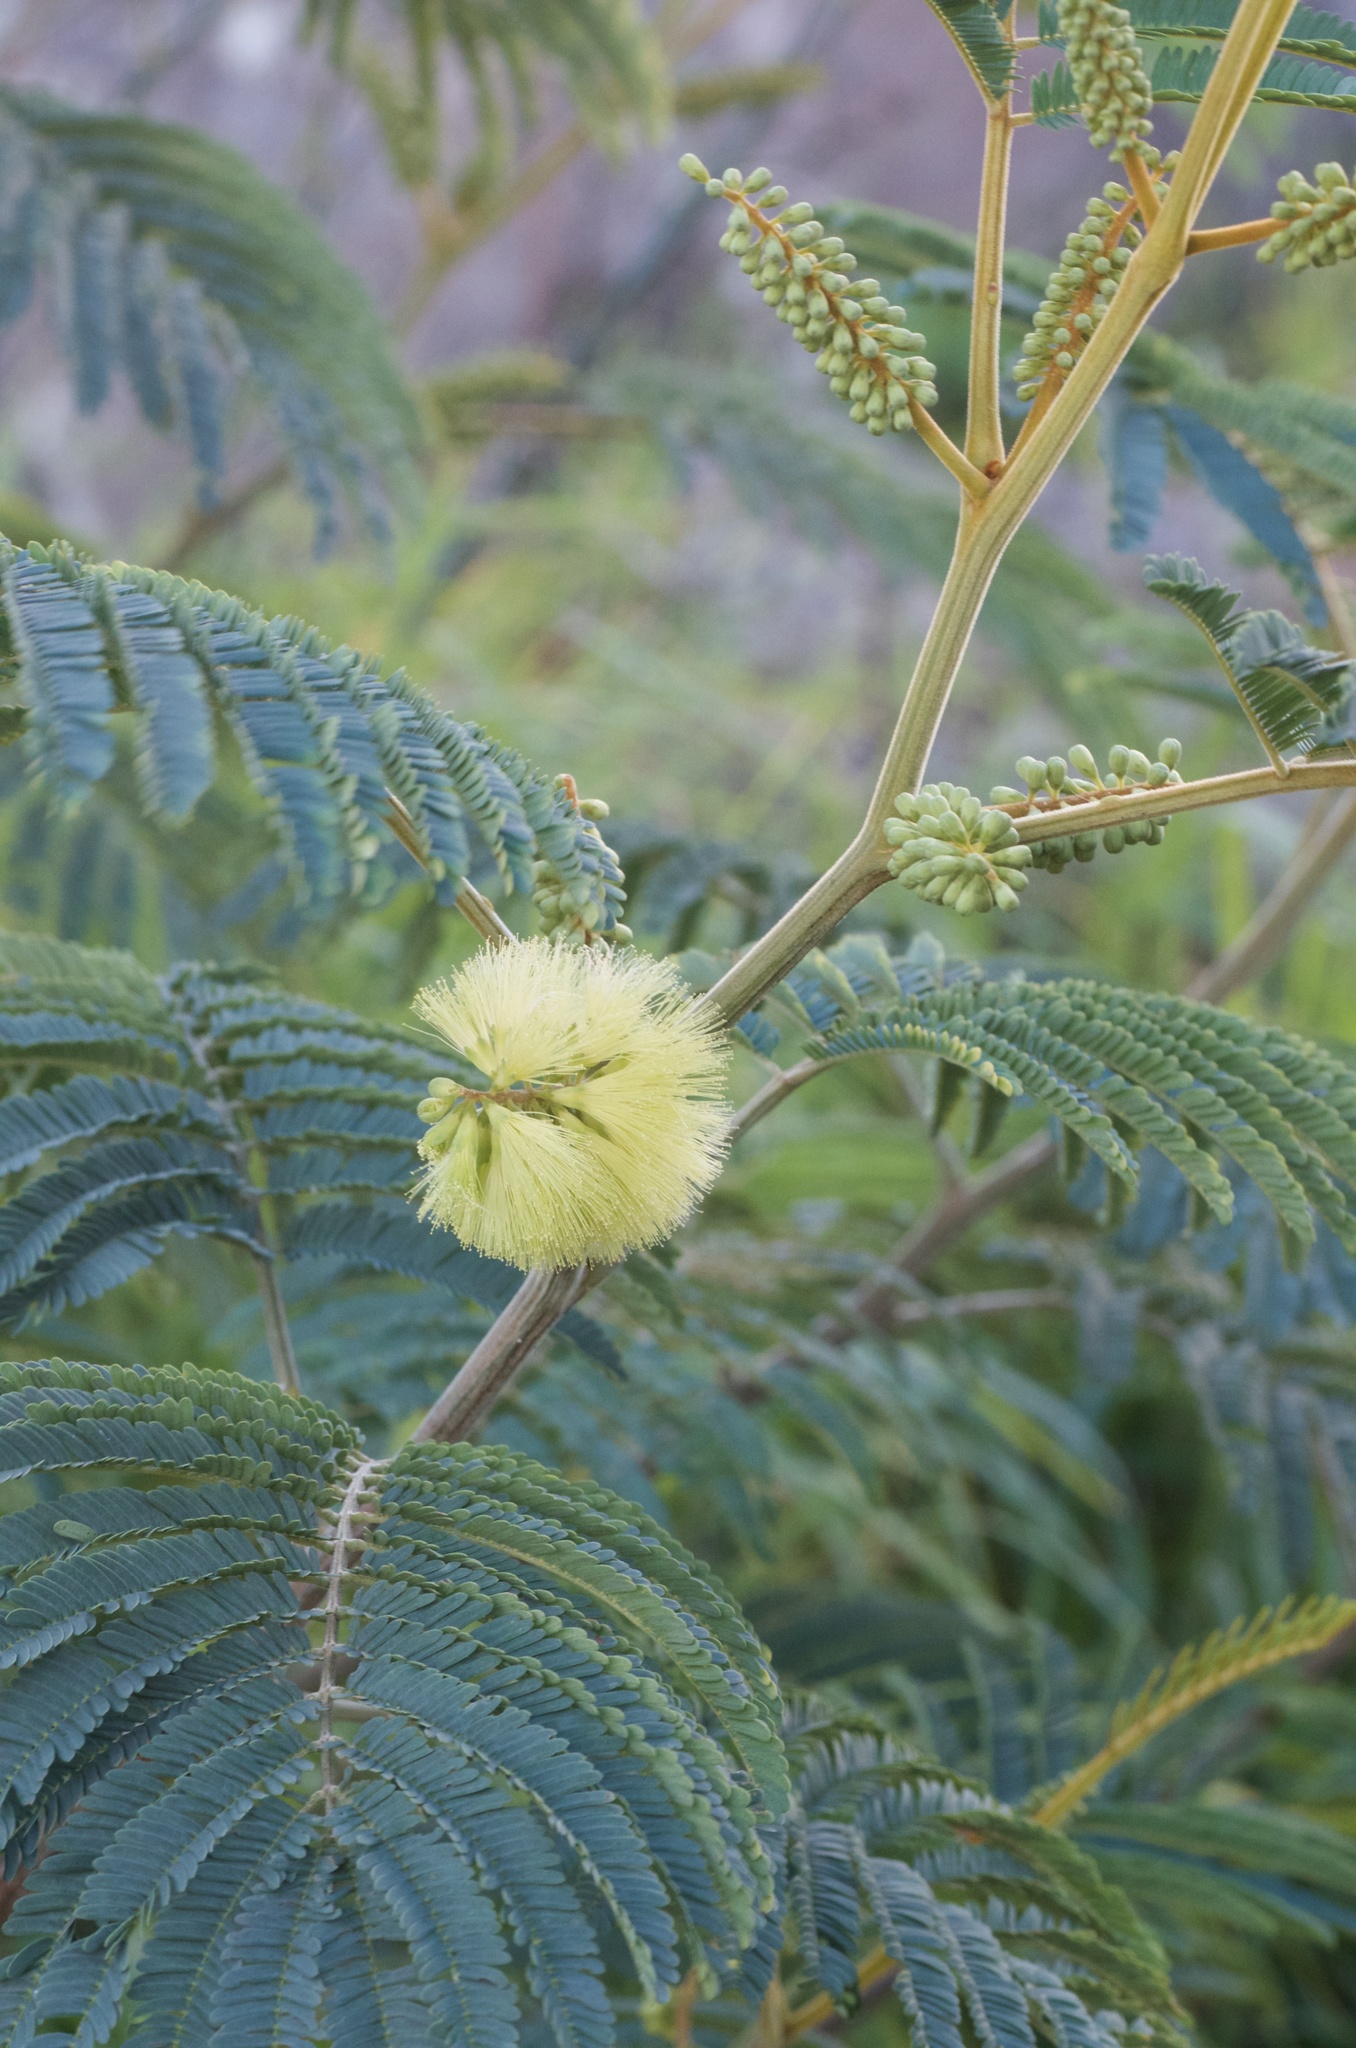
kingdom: Plantae
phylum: Tracheophyta
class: Magnoliopsida
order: Fabales
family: Fabaceae
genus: Paraserianthes
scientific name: Paraserianthes lophantha
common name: Plume albizia
